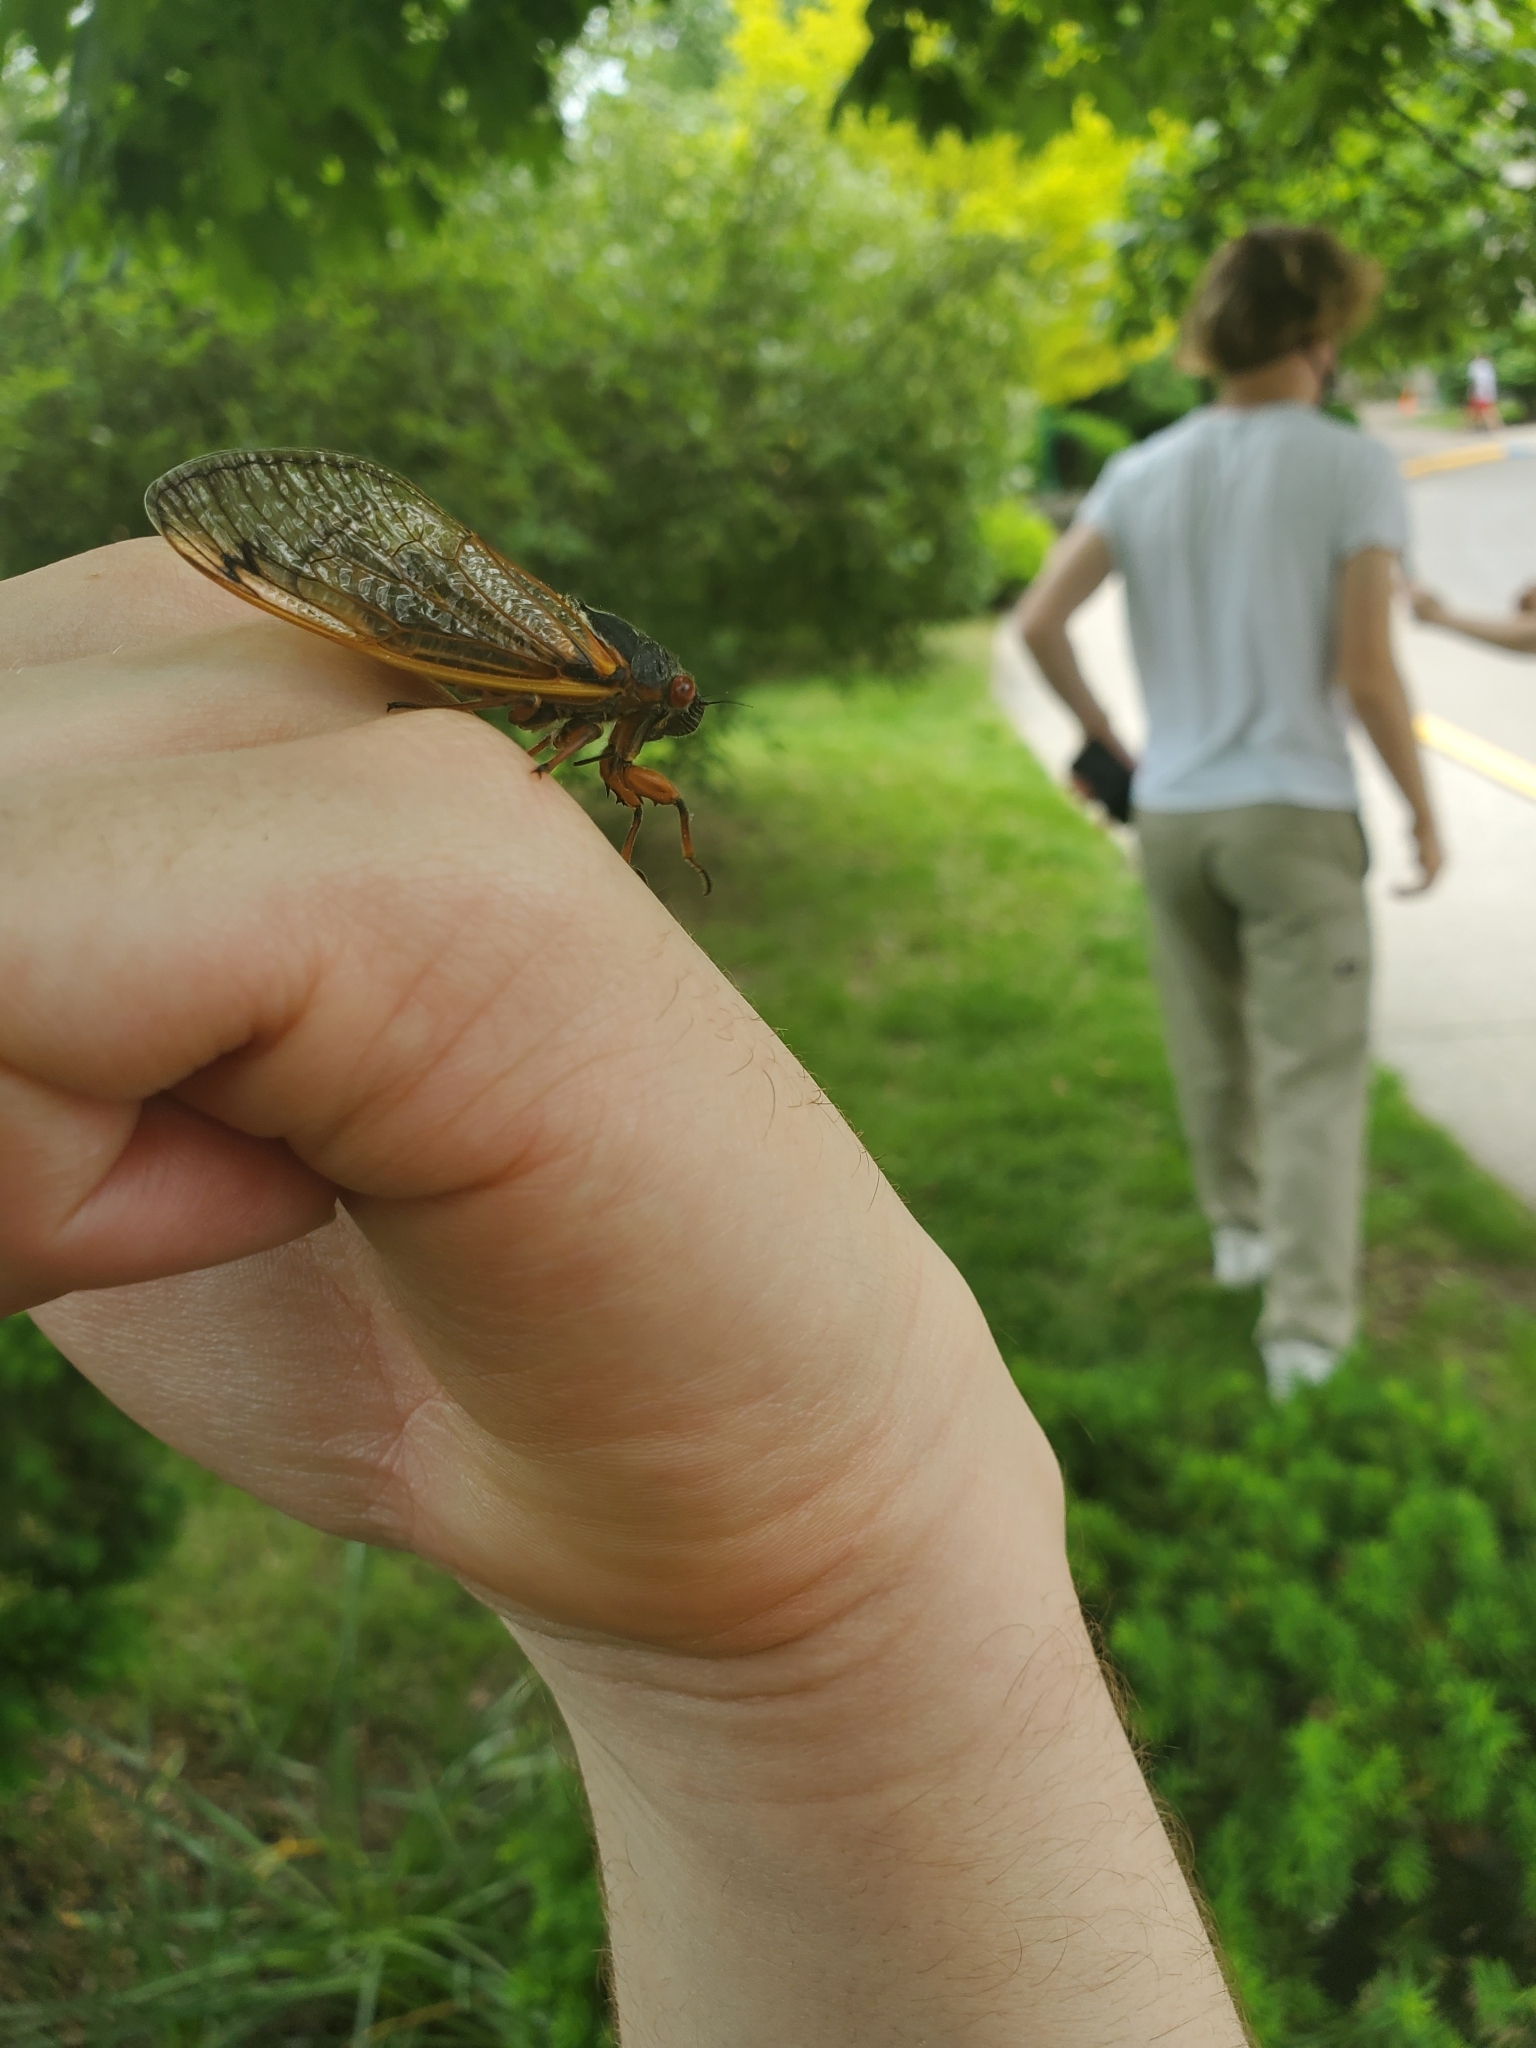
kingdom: Animalia
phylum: Arthropoda
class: Insecta
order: Hemiptera
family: Cicadidae
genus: Magicicada
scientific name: Magicicada septendecim
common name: Periodical cicada
